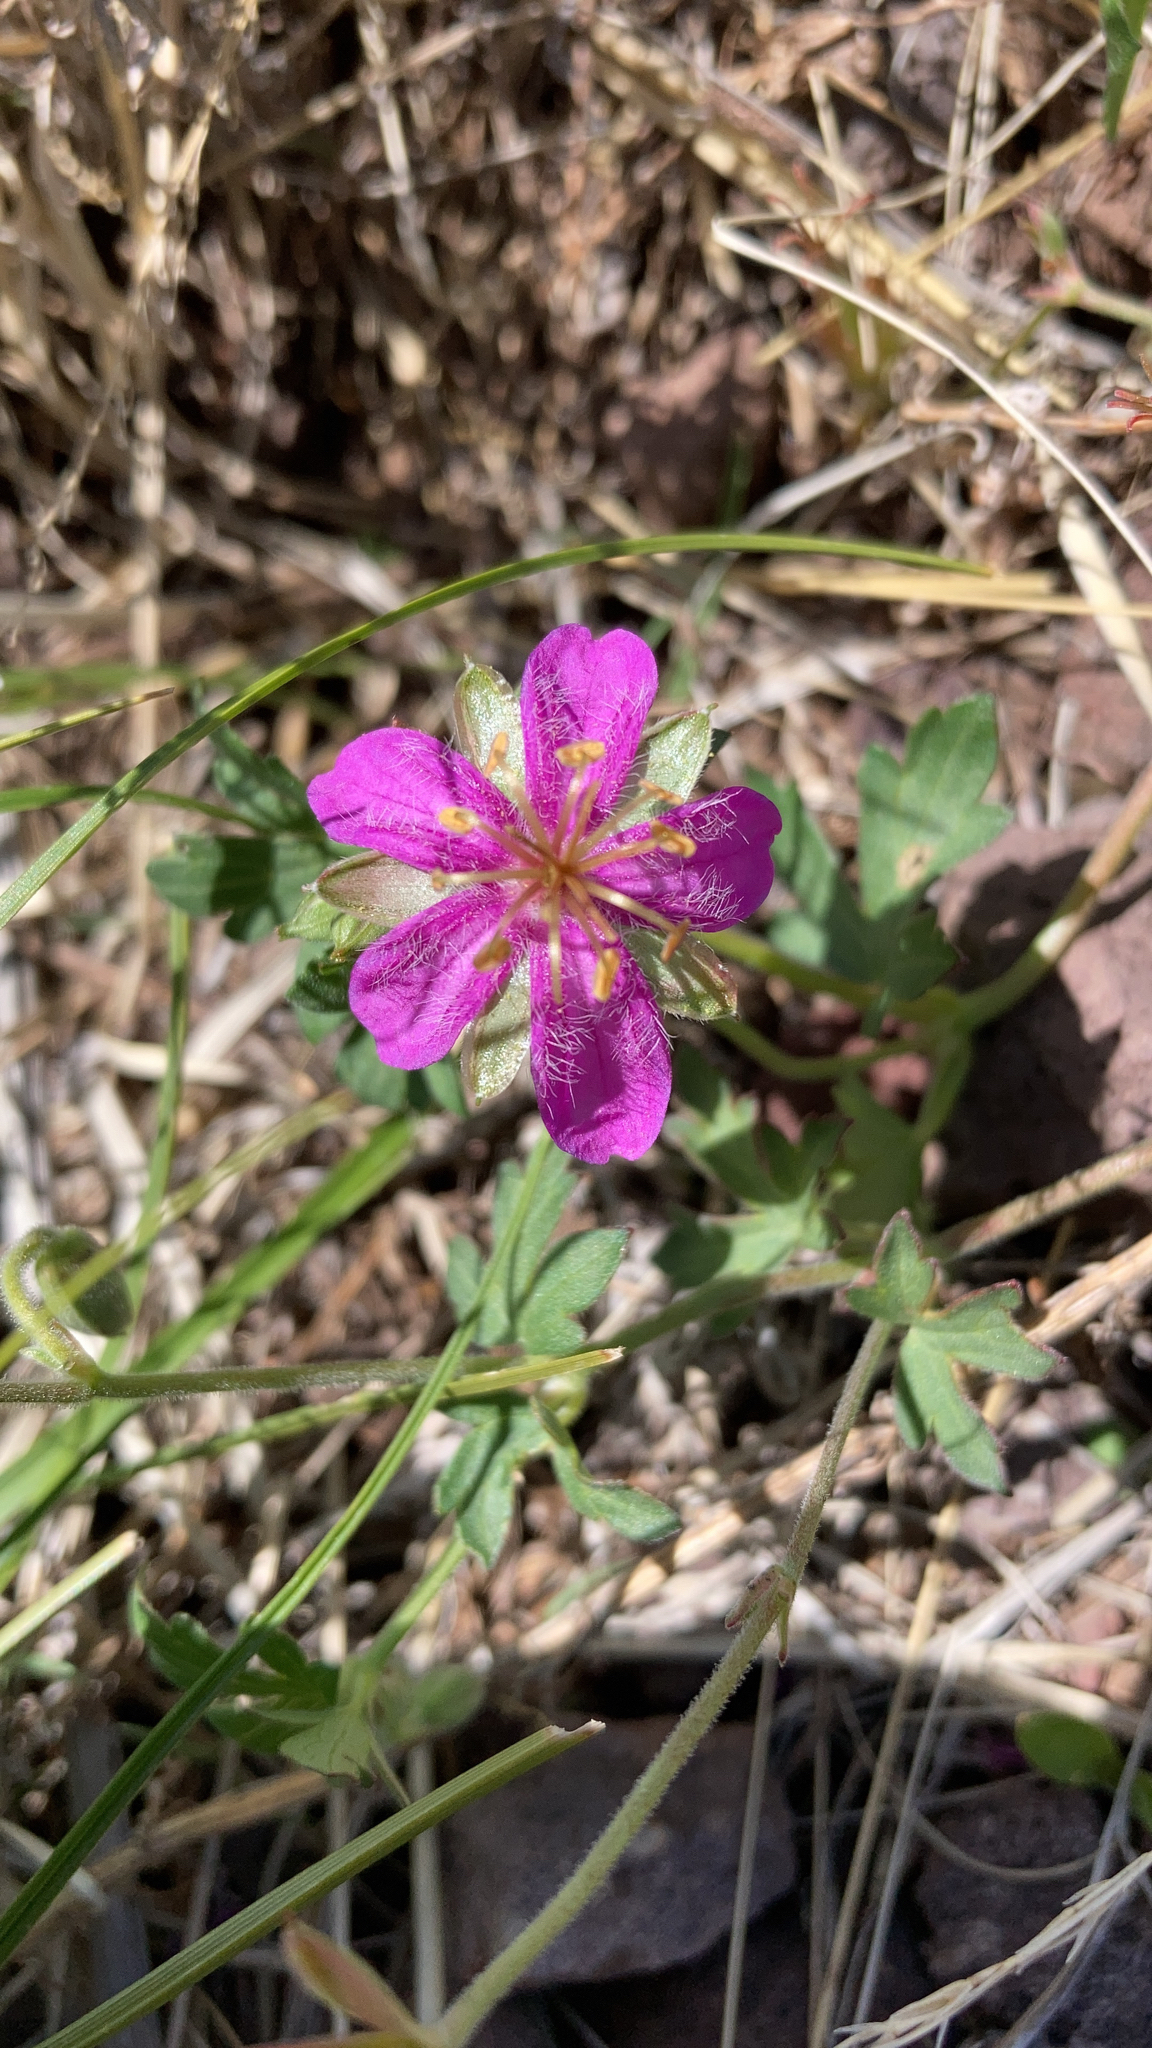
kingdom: Plantae
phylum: Tracheophyta
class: Magnoliopsida
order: Geraniales
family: Geraniaceae
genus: Geranium
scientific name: Geranium caespitosum
